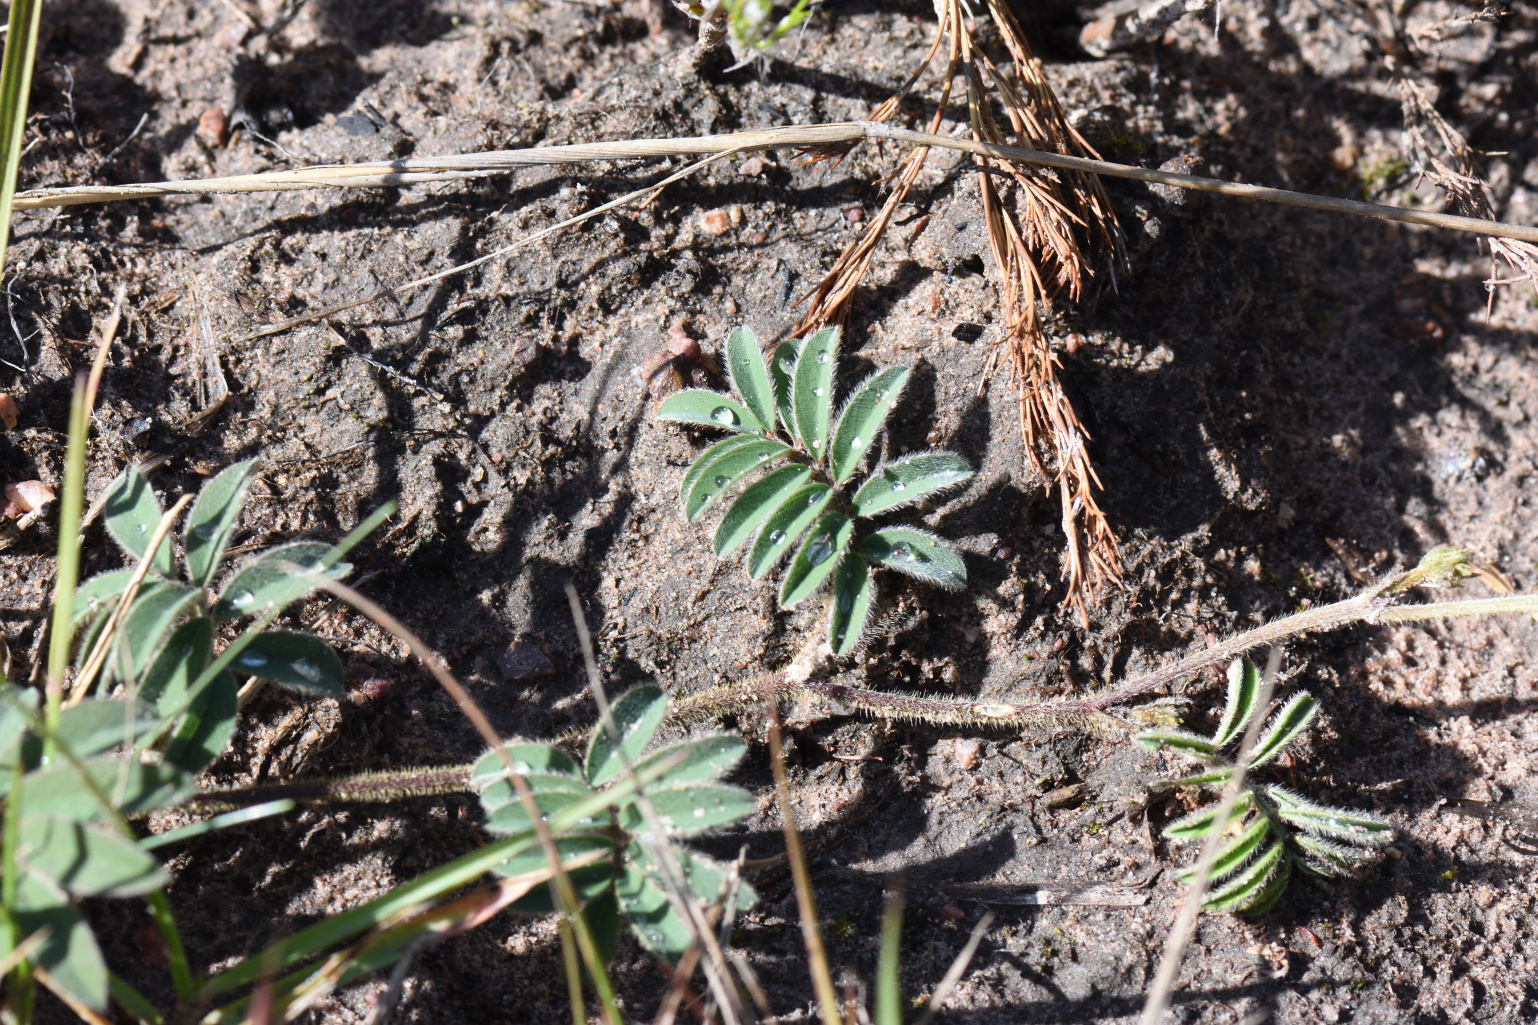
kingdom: Plantae
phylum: Tracheophyta
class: Magnoliopsida
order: Fabales
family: Fabaceae
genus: Tephrosia
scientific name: Tephrosia capensis
